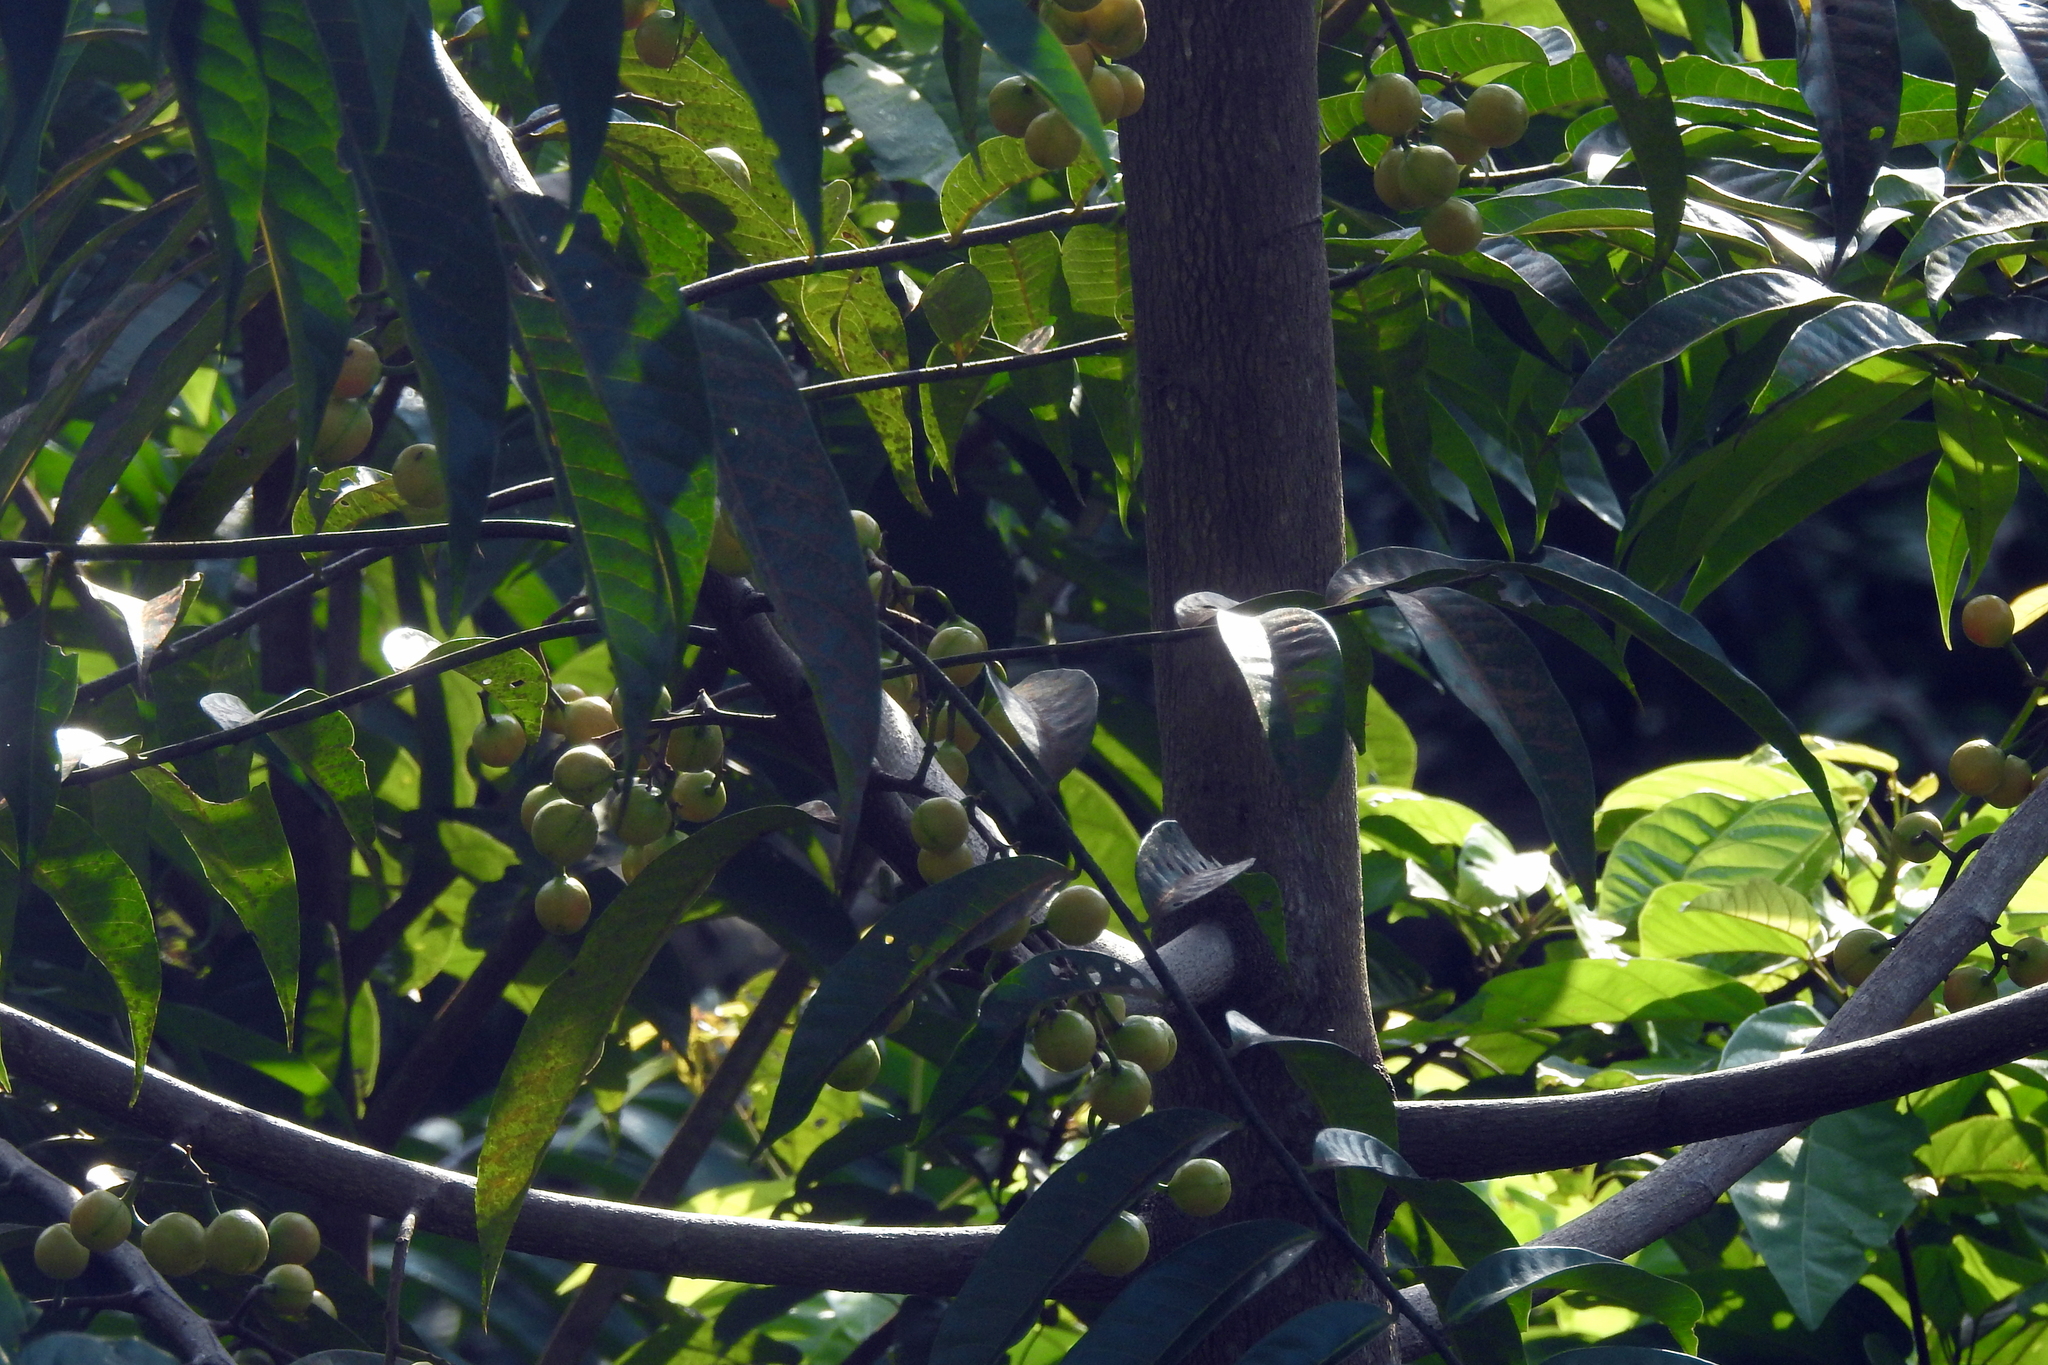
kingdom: Plantae
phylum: Tracheophyta
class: Magnoliopsida
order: Magnoliales
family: Myristicaceae
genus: Horsfieldia
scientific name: Horsfieldia irya
